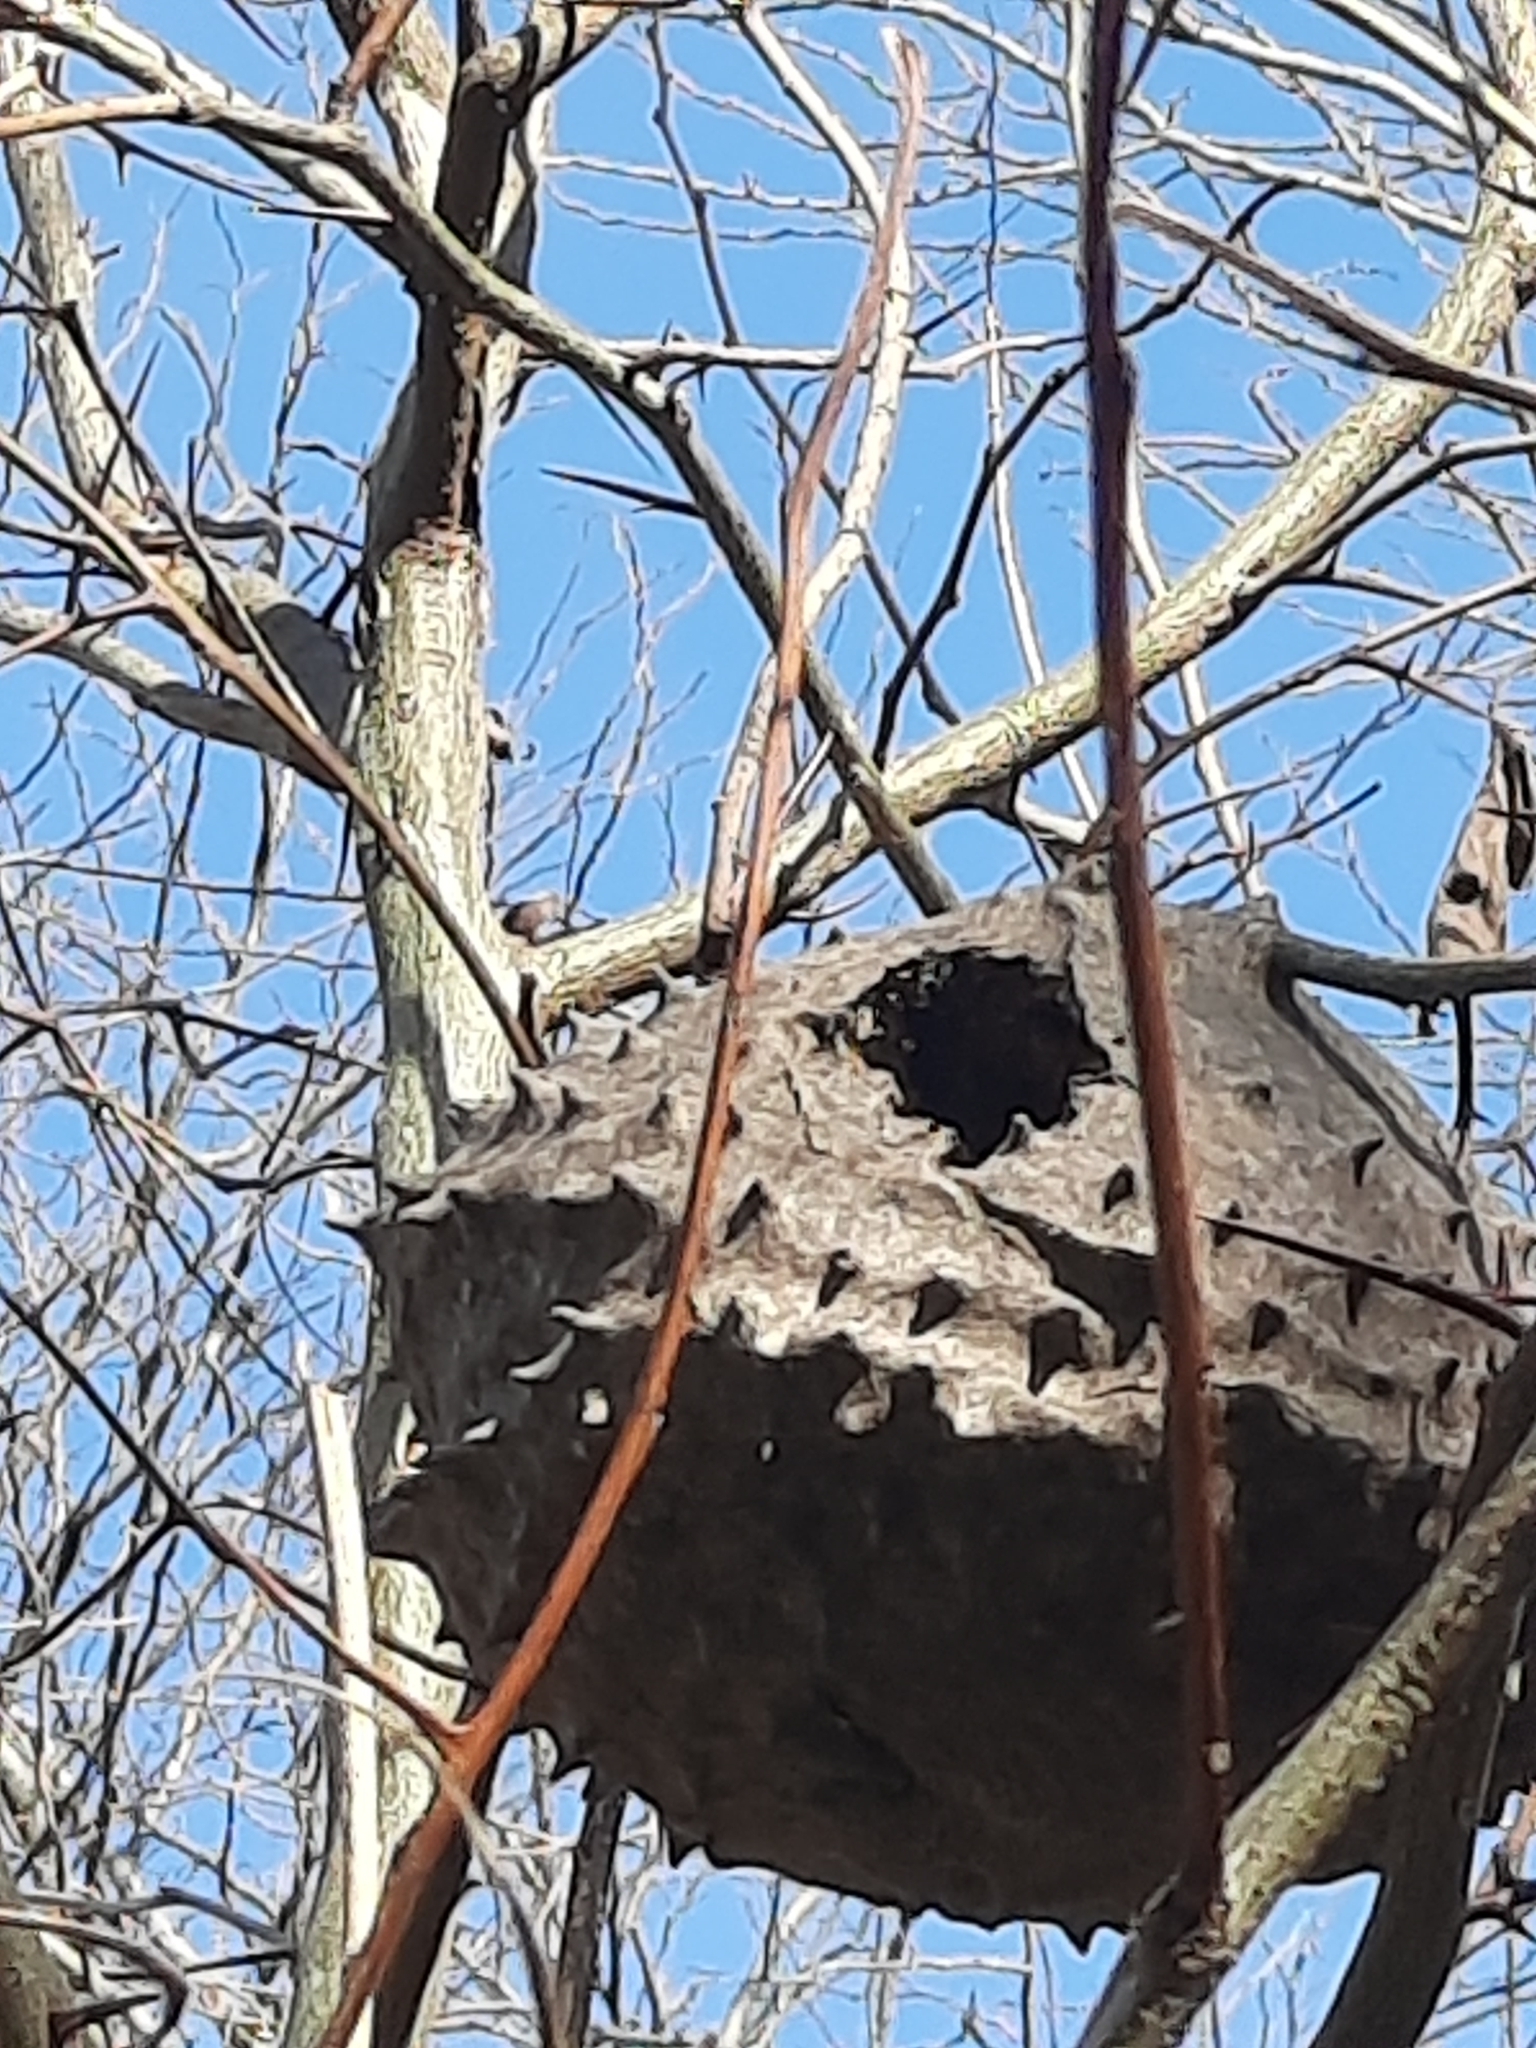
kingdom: Animalia
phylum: Arthropoda
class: Insecta
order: Hymenoptera
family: Eumenidae
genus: Polybia
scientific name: Polybia scutellaris
